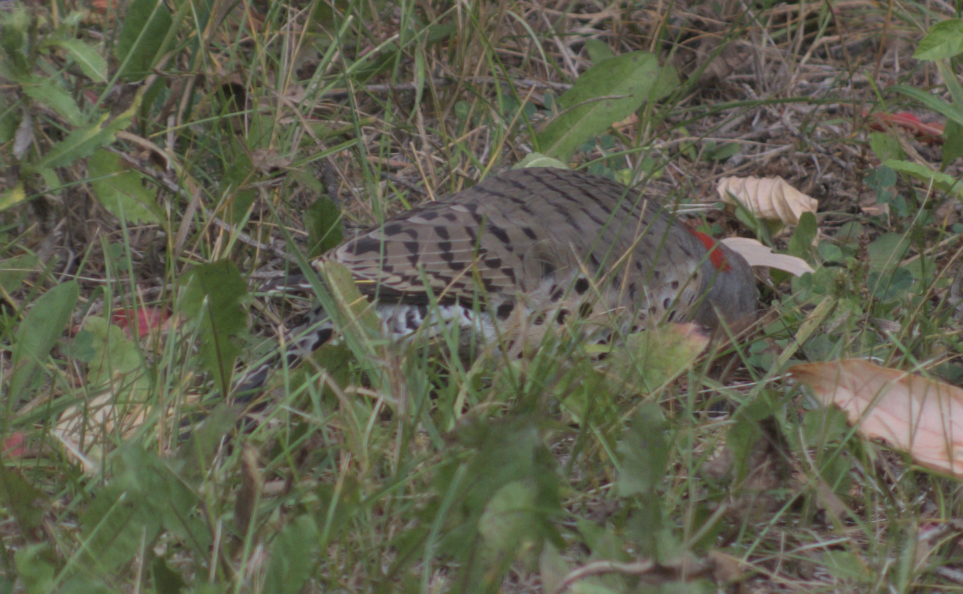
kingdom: Animalia
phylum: Chordata
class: Aves
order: Piciformes
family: Picidae
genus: Colaptes
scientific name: Colaptes auratus
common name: Northern flicker
